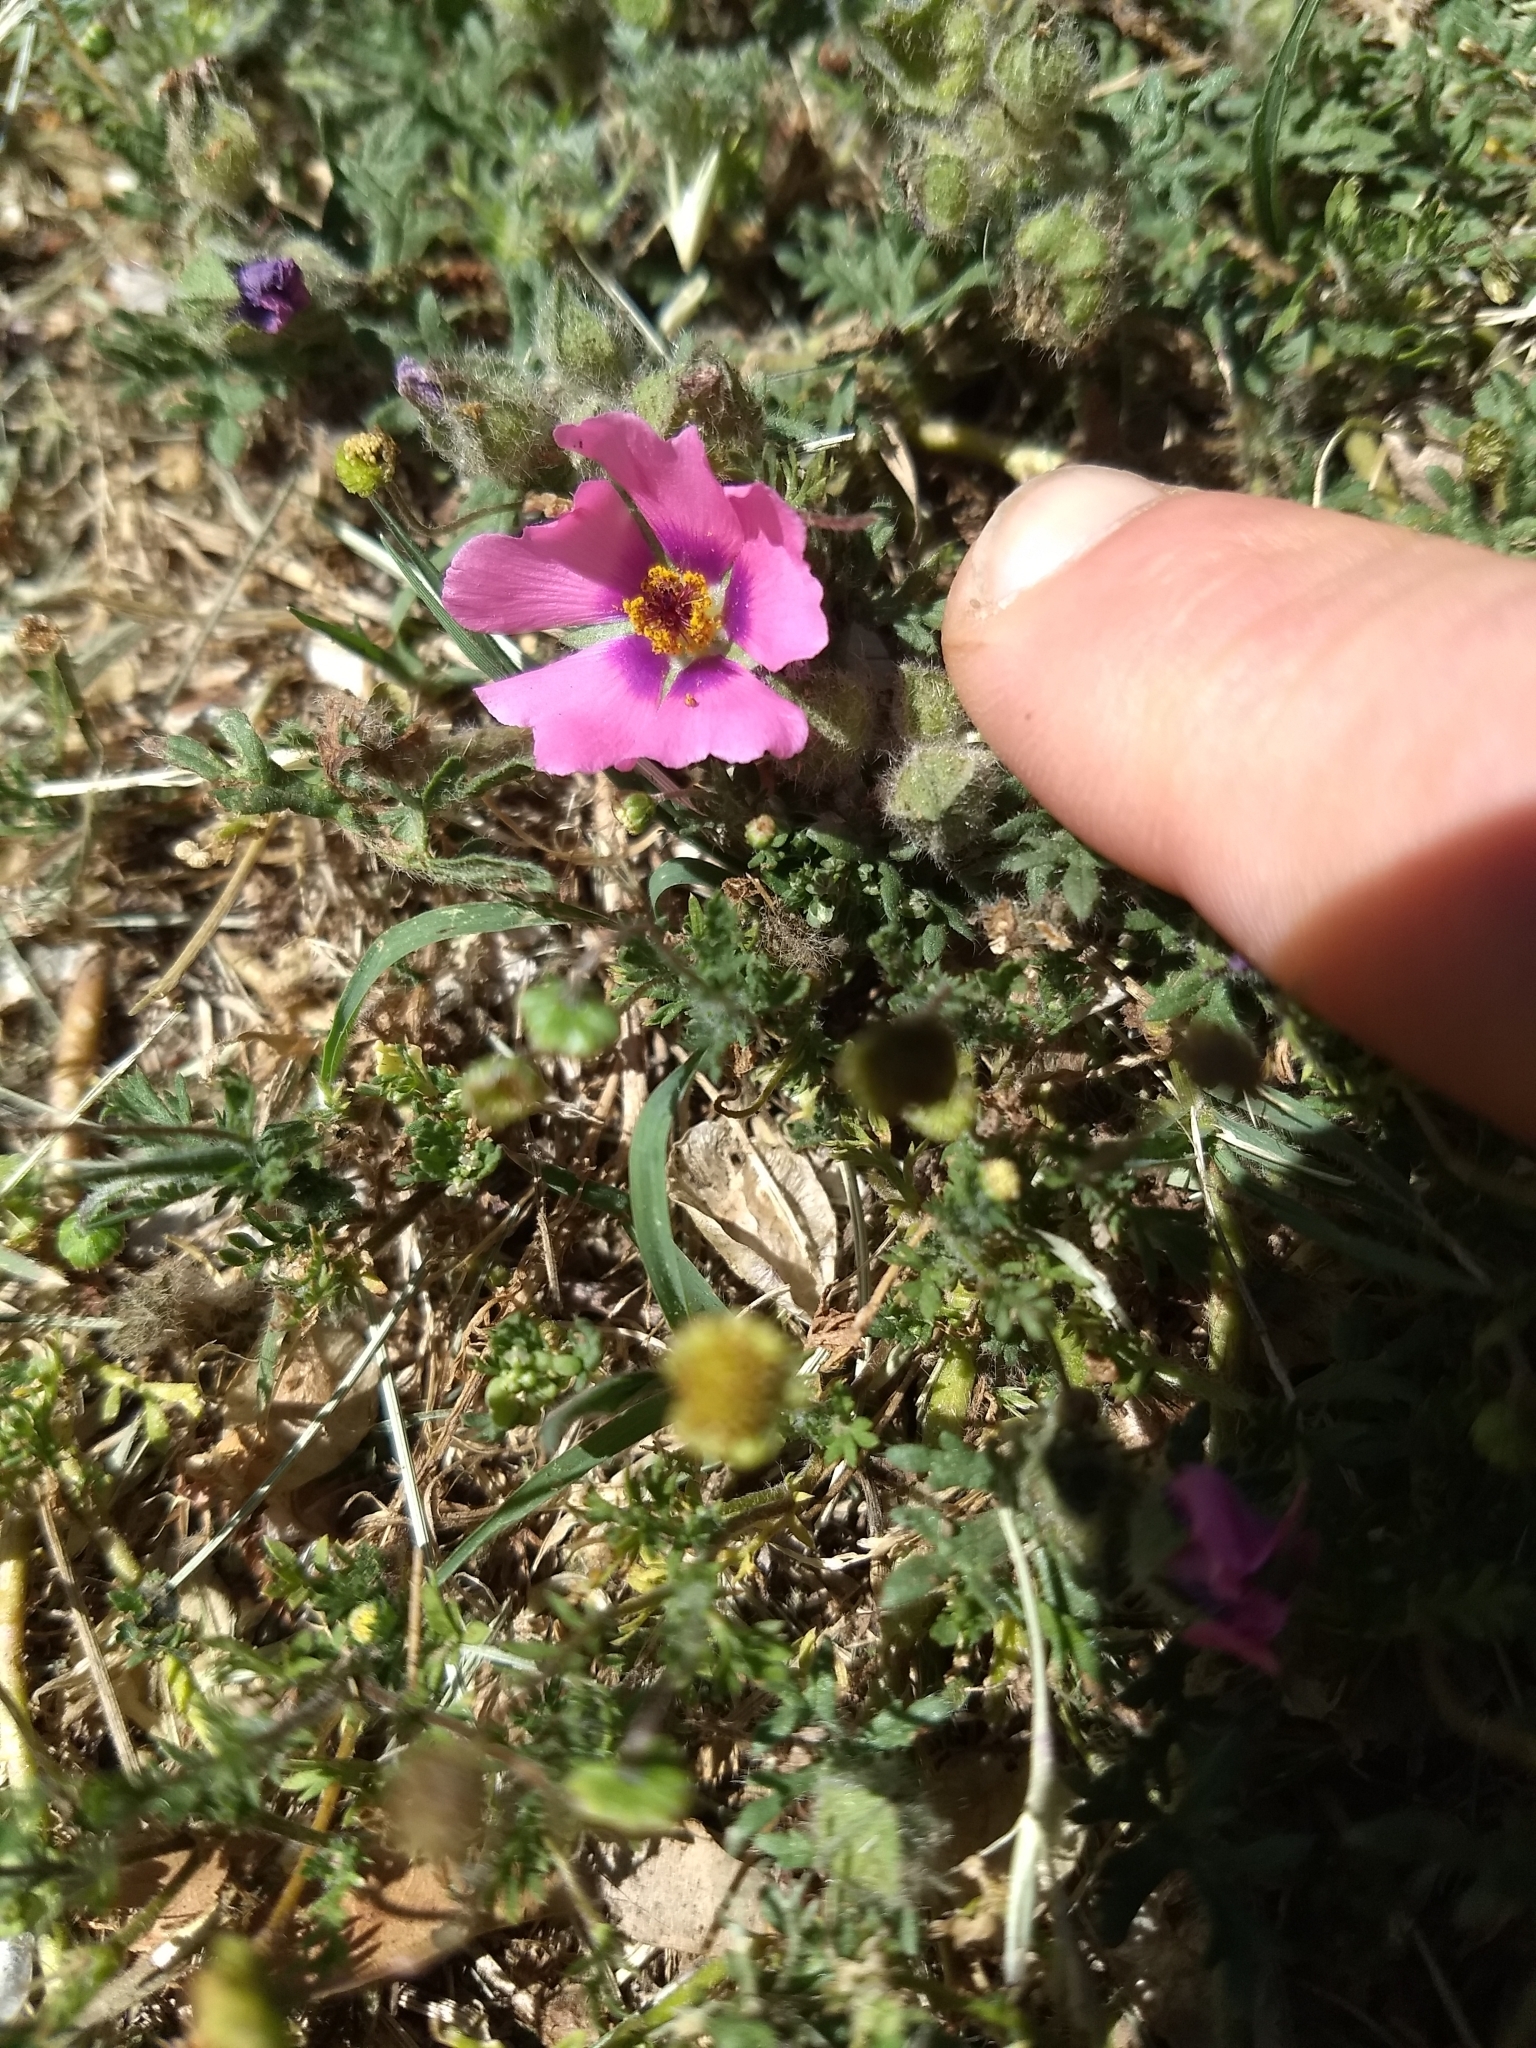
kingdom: Plantae
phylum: Tracheophyta
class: Magnoliopsida
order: Malvales
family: Malvaceae
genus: Modiolastrum
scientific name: Modiolastrum gilliesii
